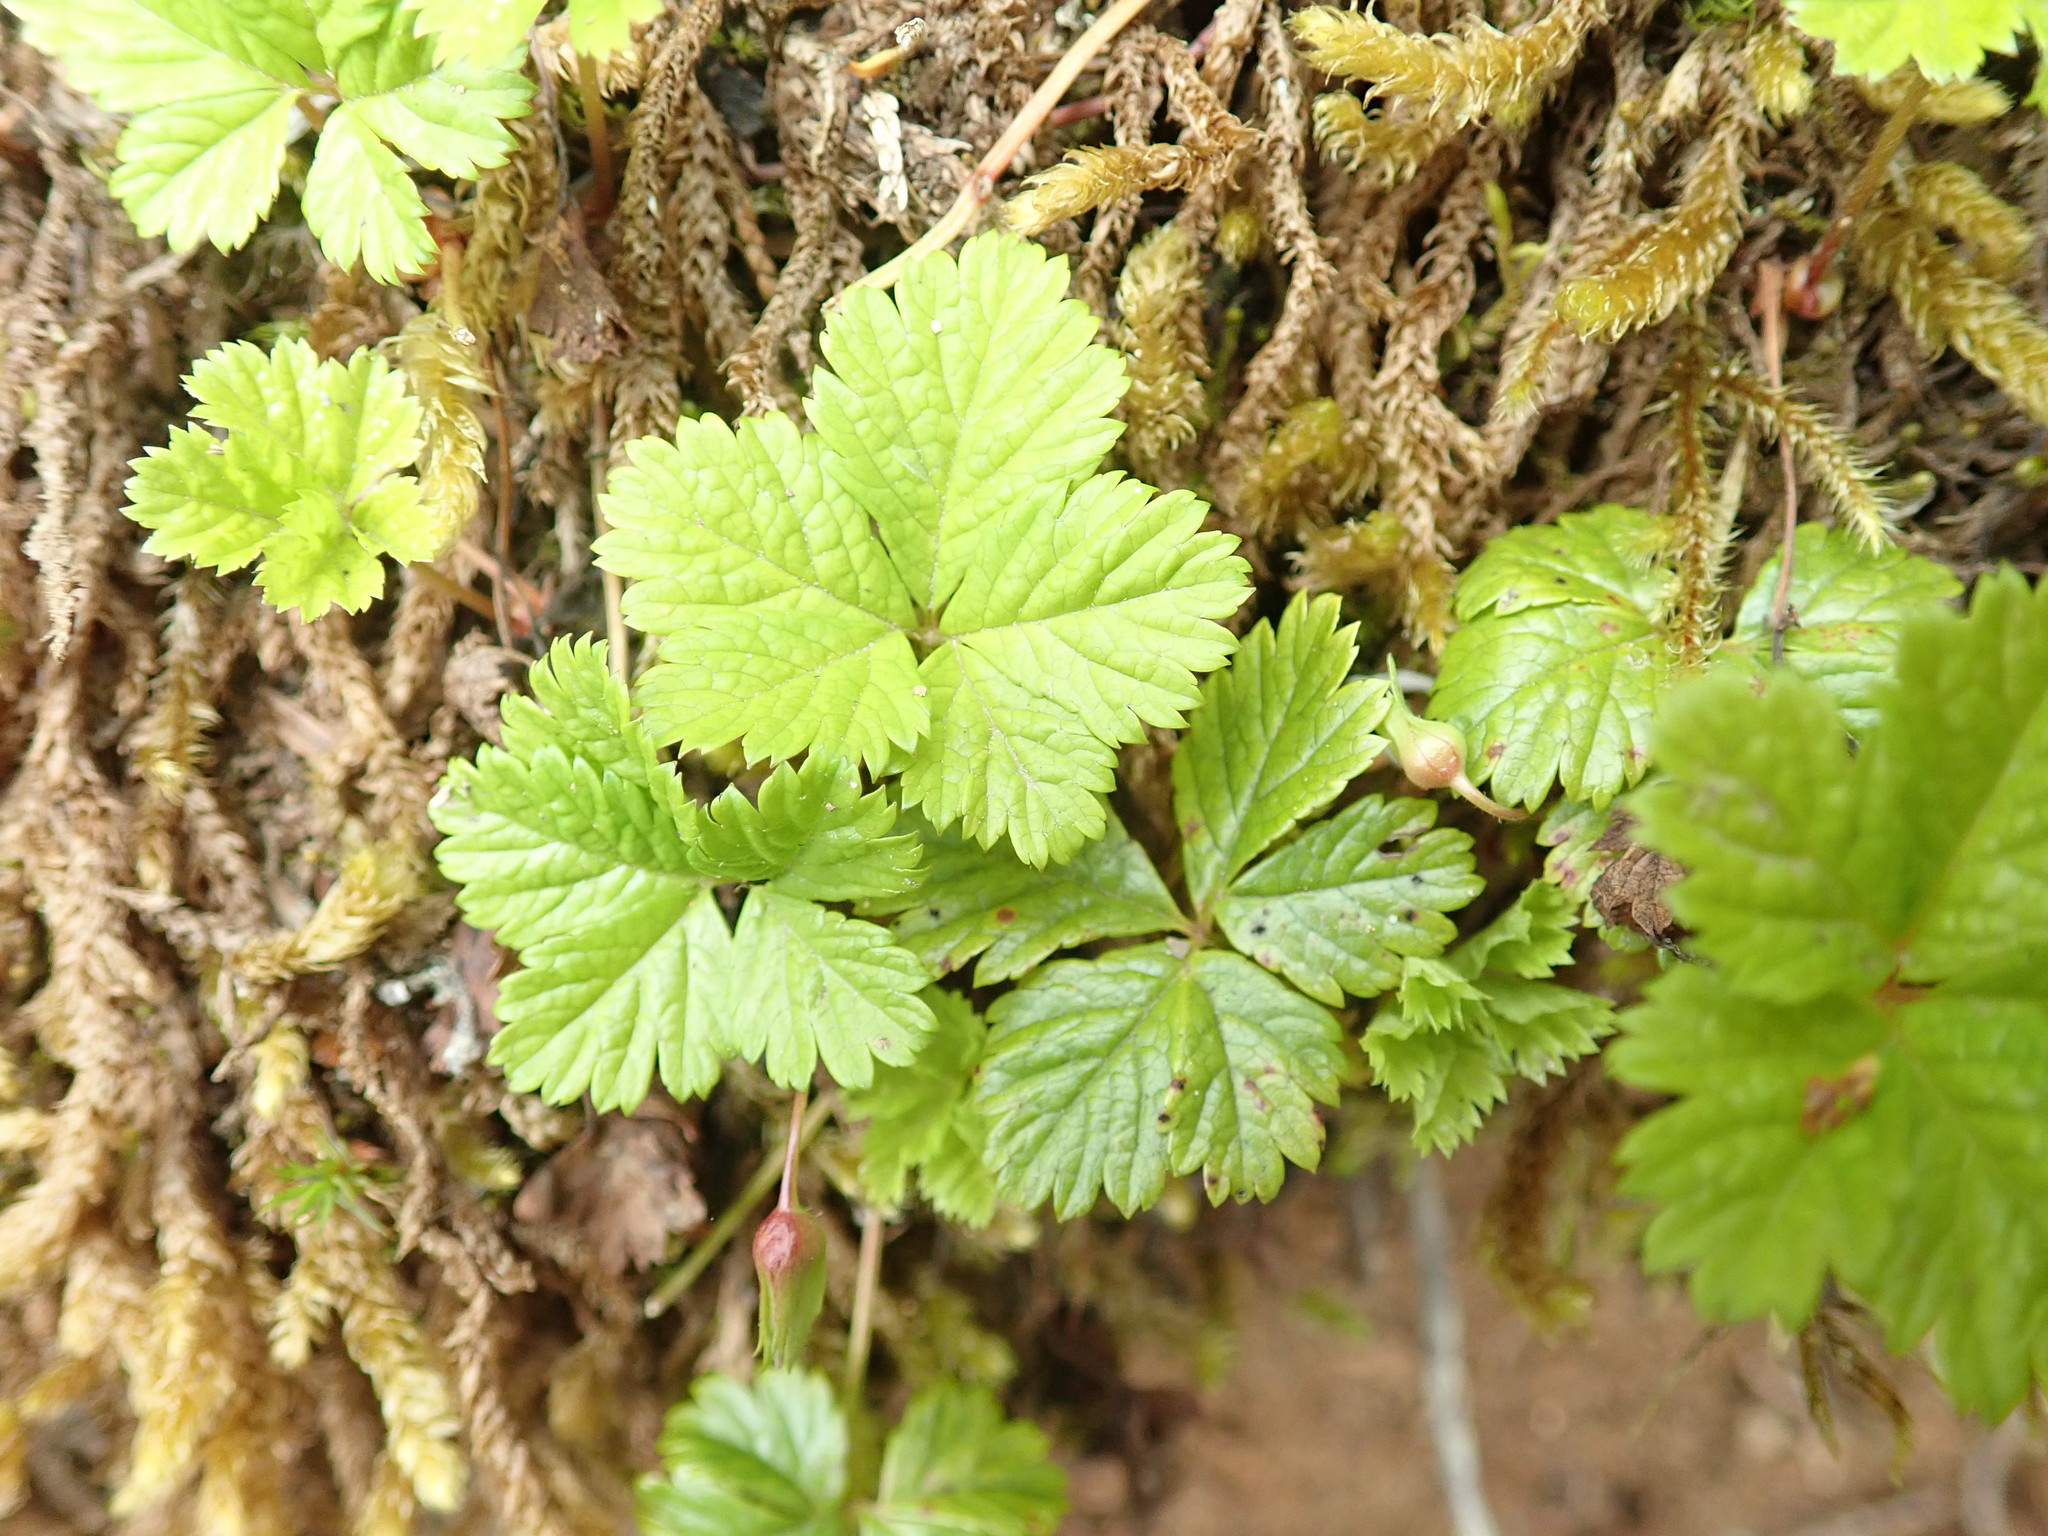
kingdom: Plantae
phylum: Tracheophyta
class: Magnoliopsida
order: Rosales
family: Rosaceae
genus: Rubus
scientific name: Rubus pedatus
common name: Creeping raspberry
